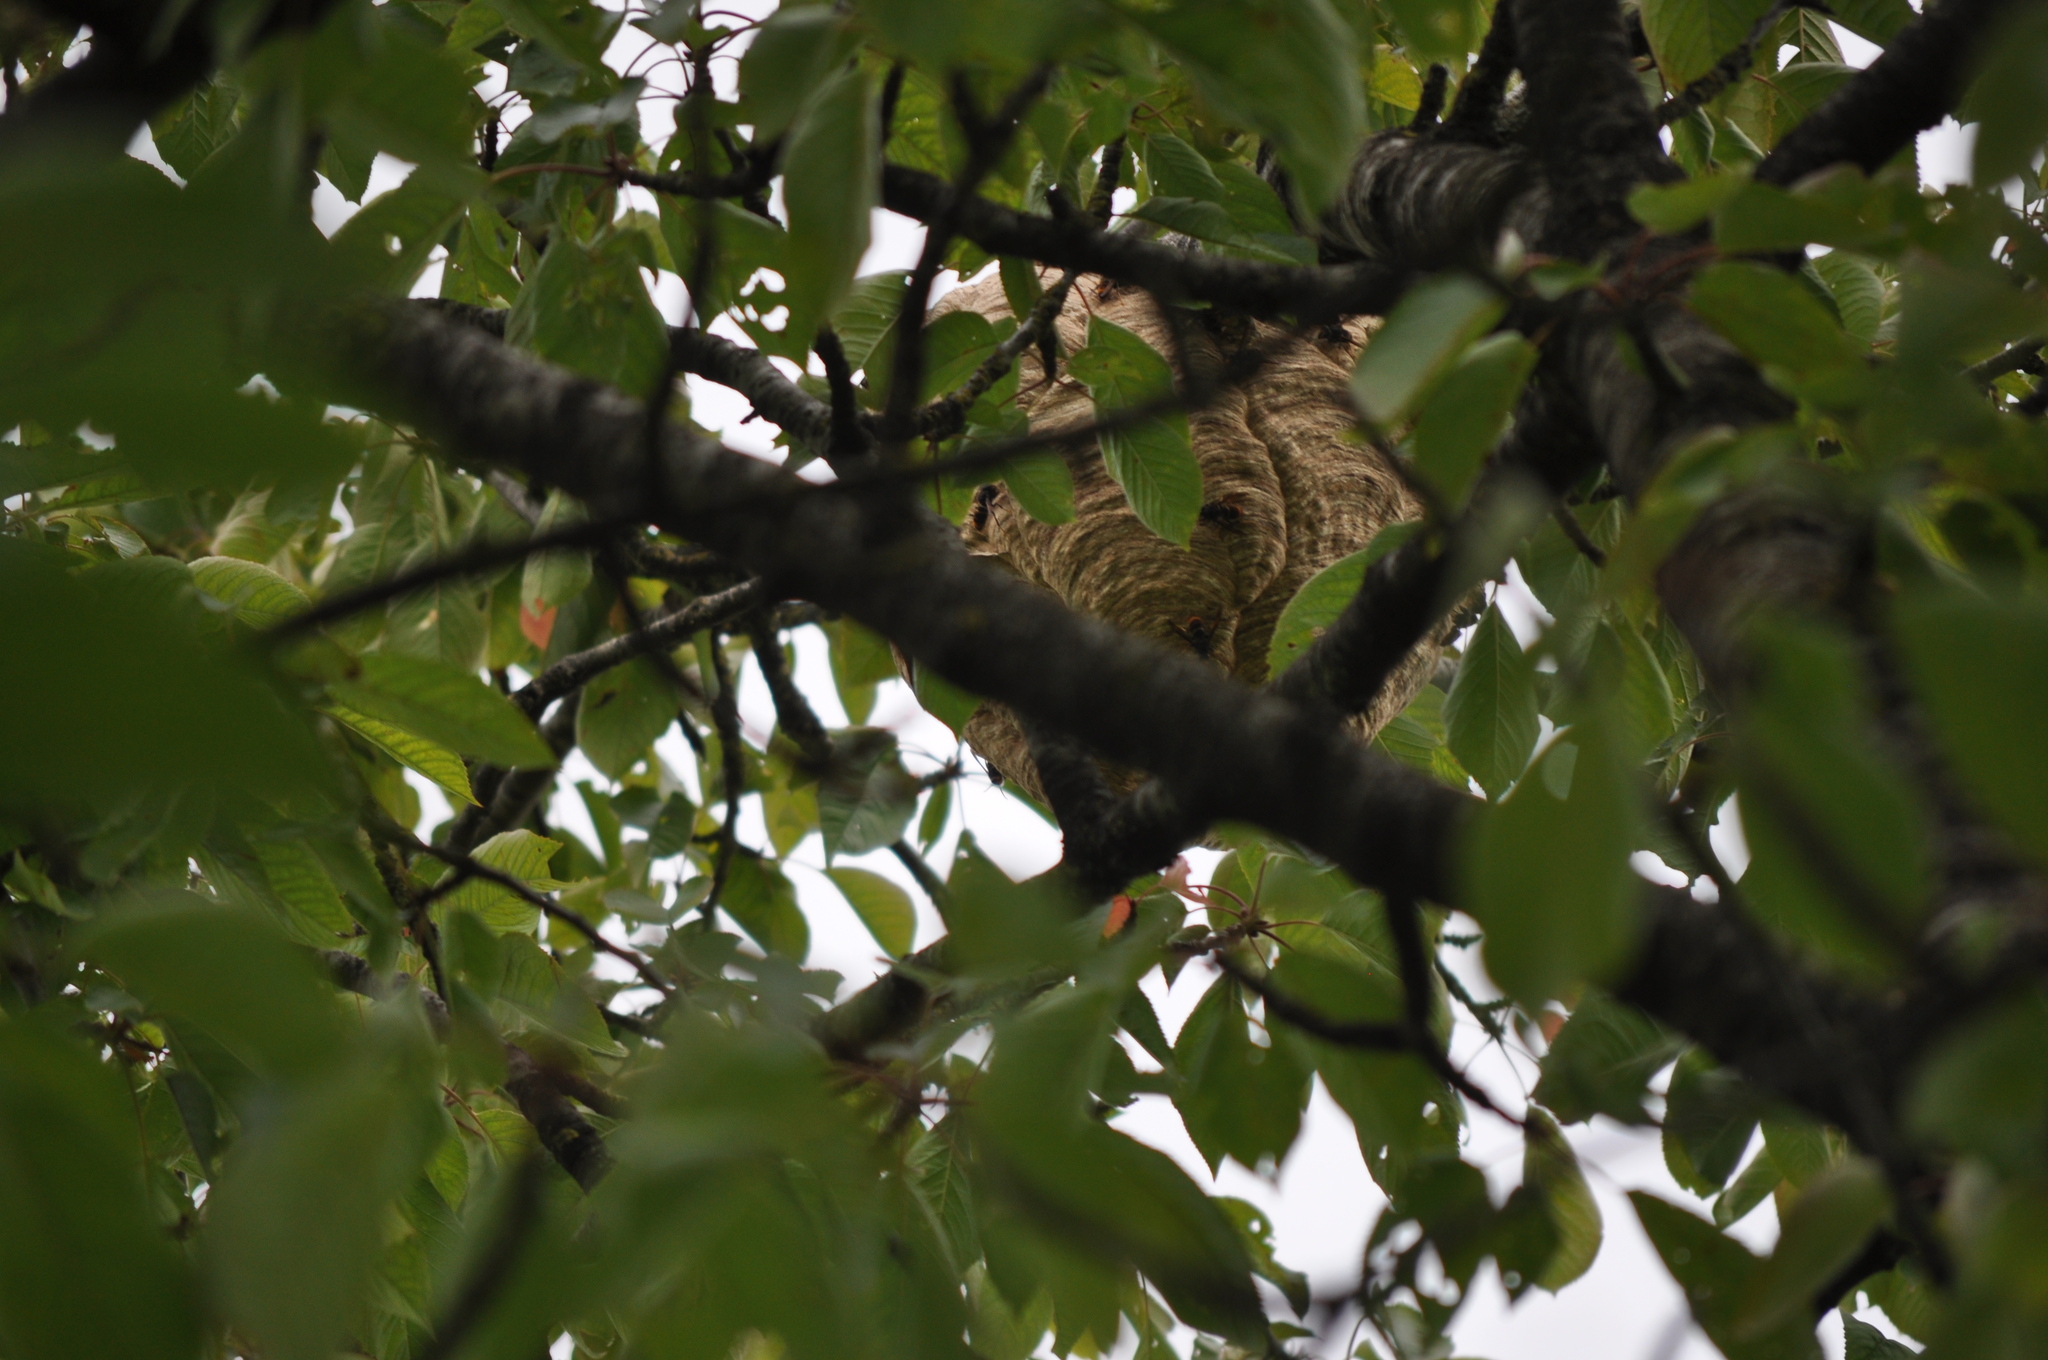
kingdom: Animalia
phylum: Arthropoda
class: Insecta
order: Hymenoptera
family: Vespidae
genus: Vespa
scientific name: Vespa velutina
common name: Asian hornet
